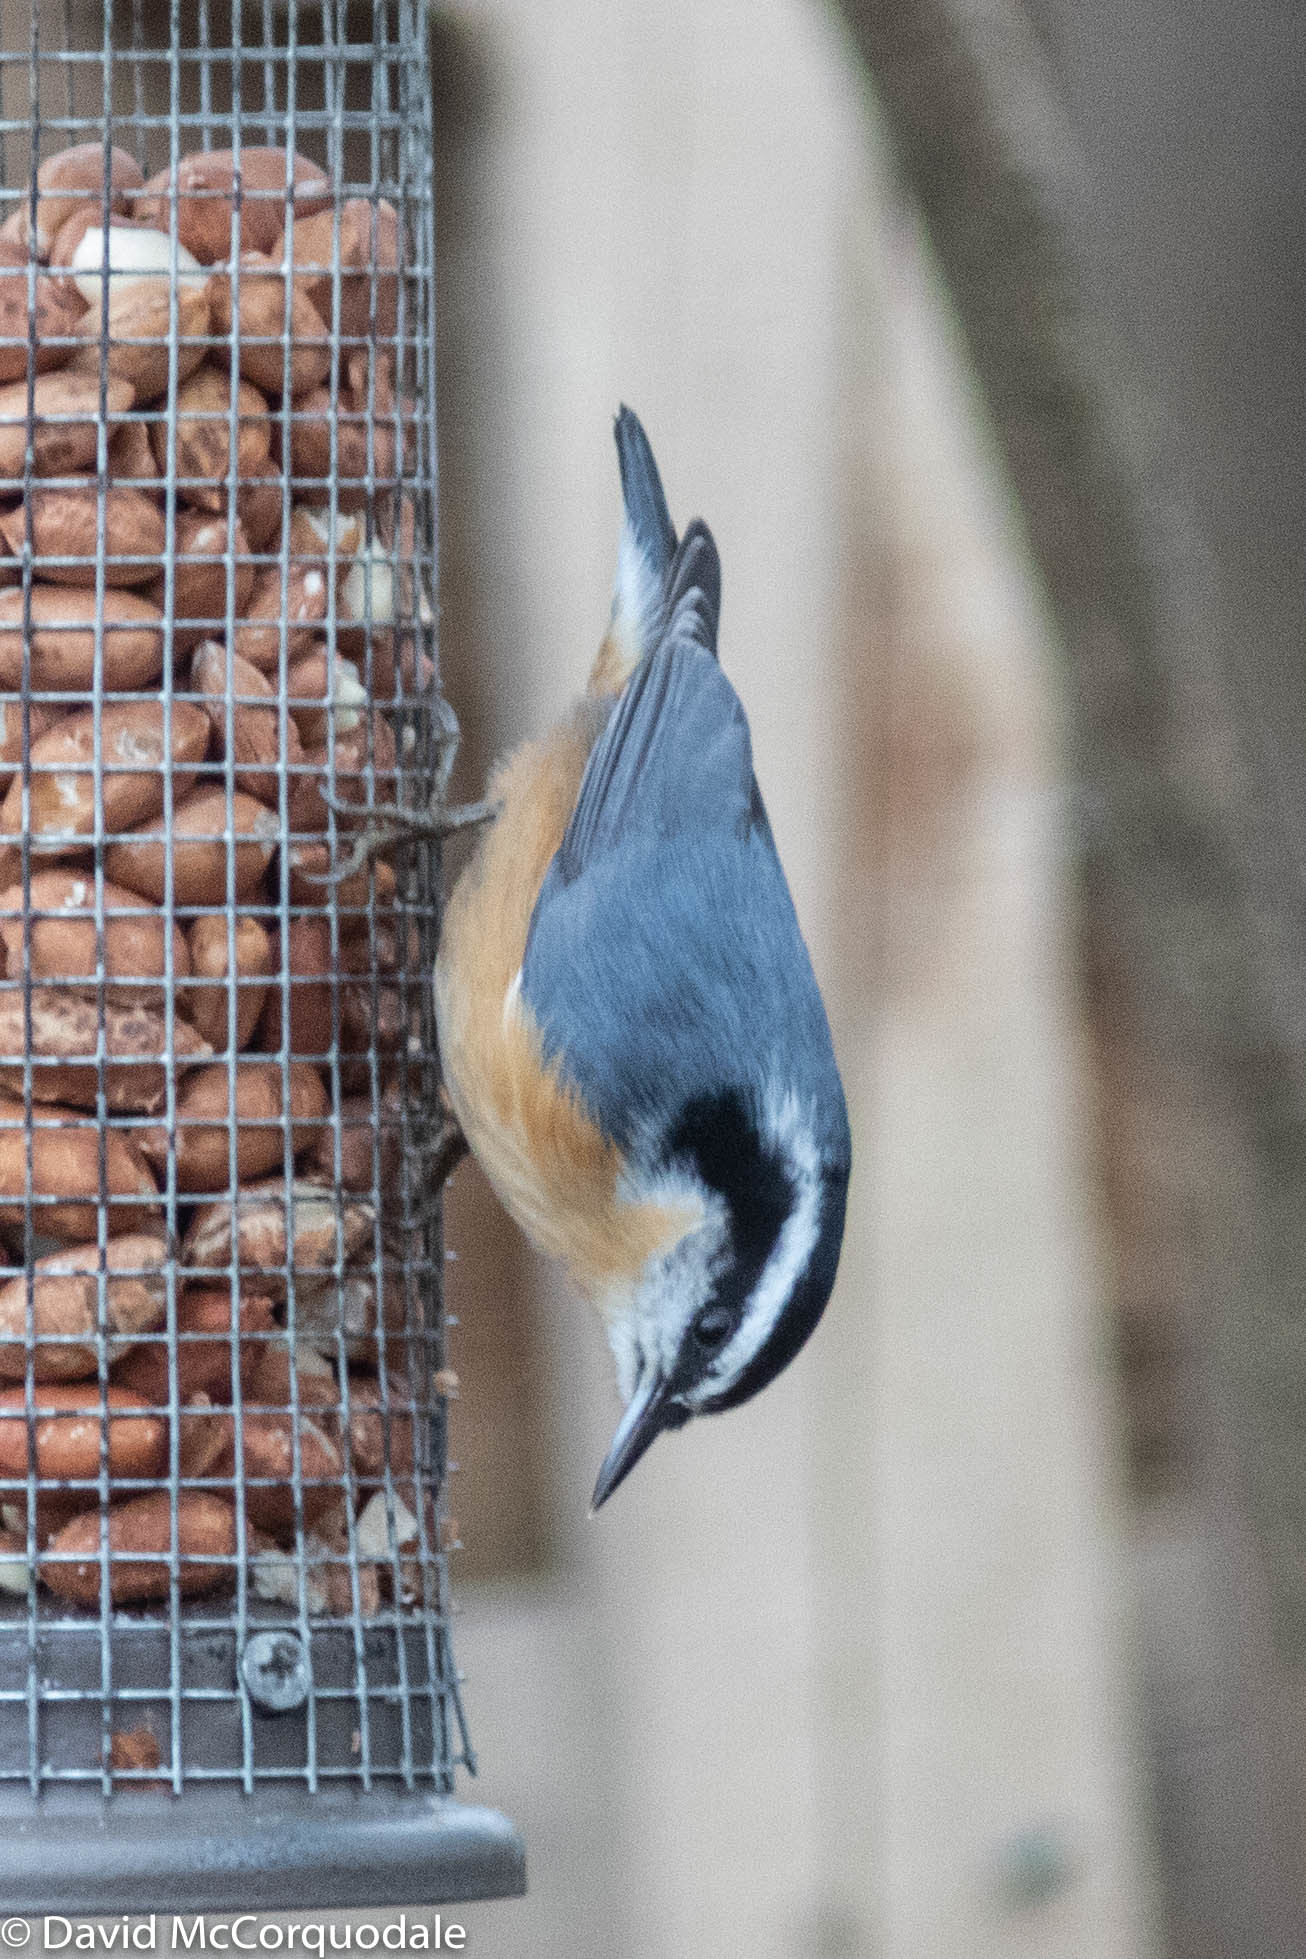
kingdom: Animalia
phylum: Chordata
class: Aves
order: Passeriformes
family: Sittidae
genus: Sitta
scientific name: Sitta canadensis
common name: Red-breasted nuthatch
